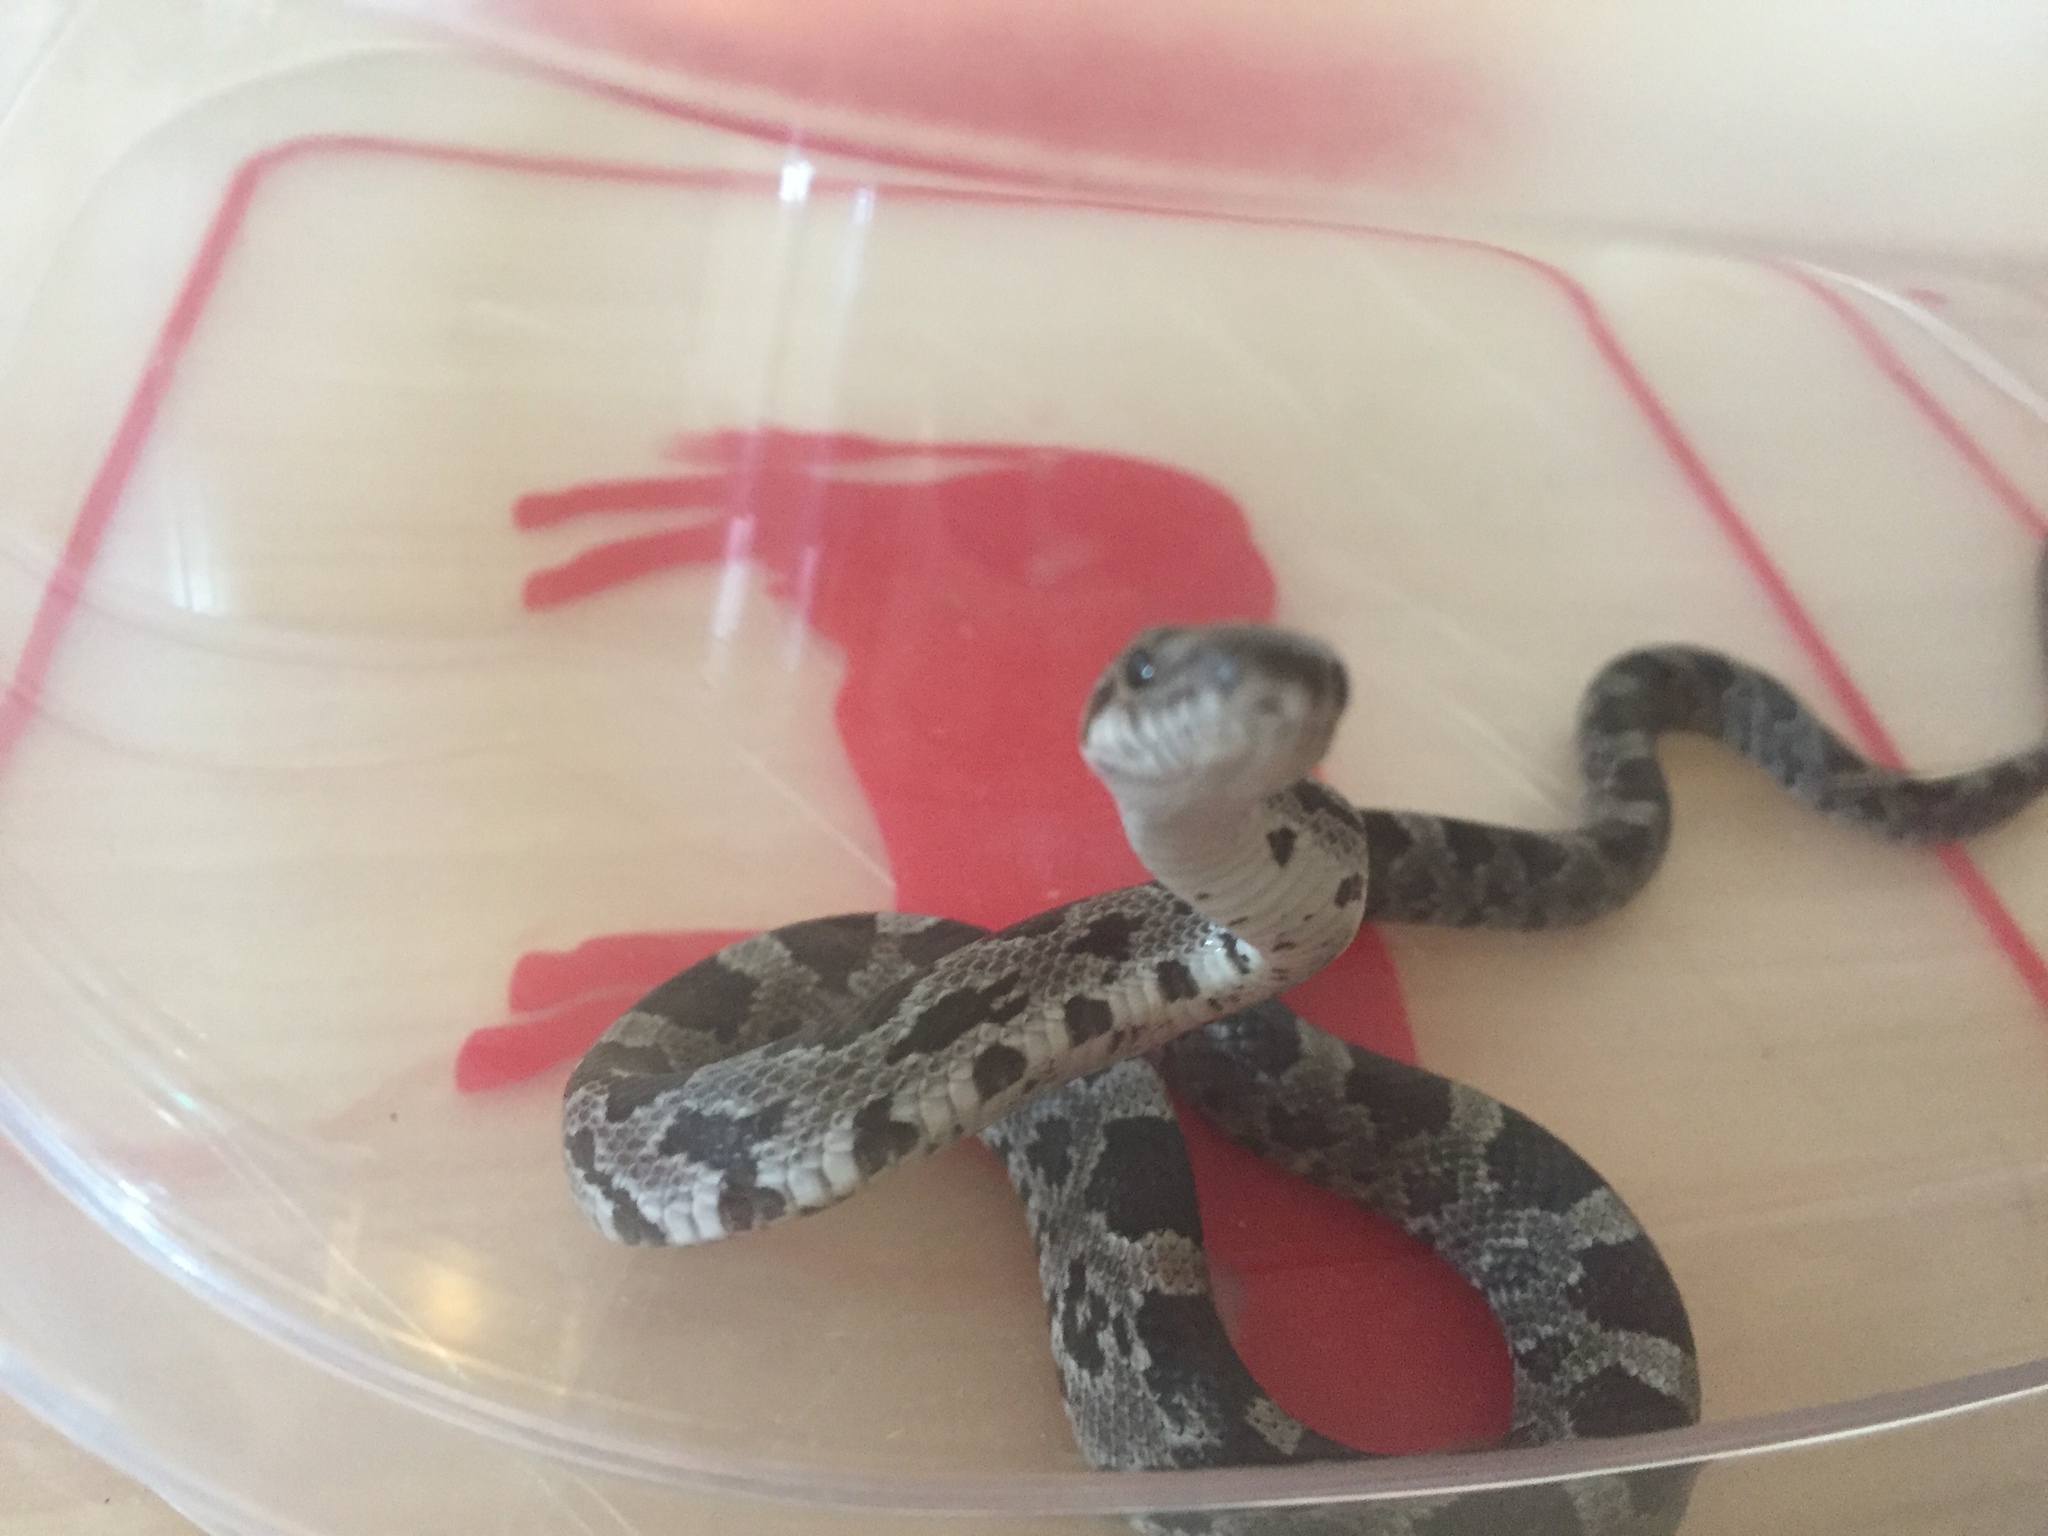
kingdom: Animalia
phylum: Chordata
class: Squamata
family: Colubridae
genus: Pantherophis
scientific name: Pantherophis spiloides
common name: Gray rat snake
